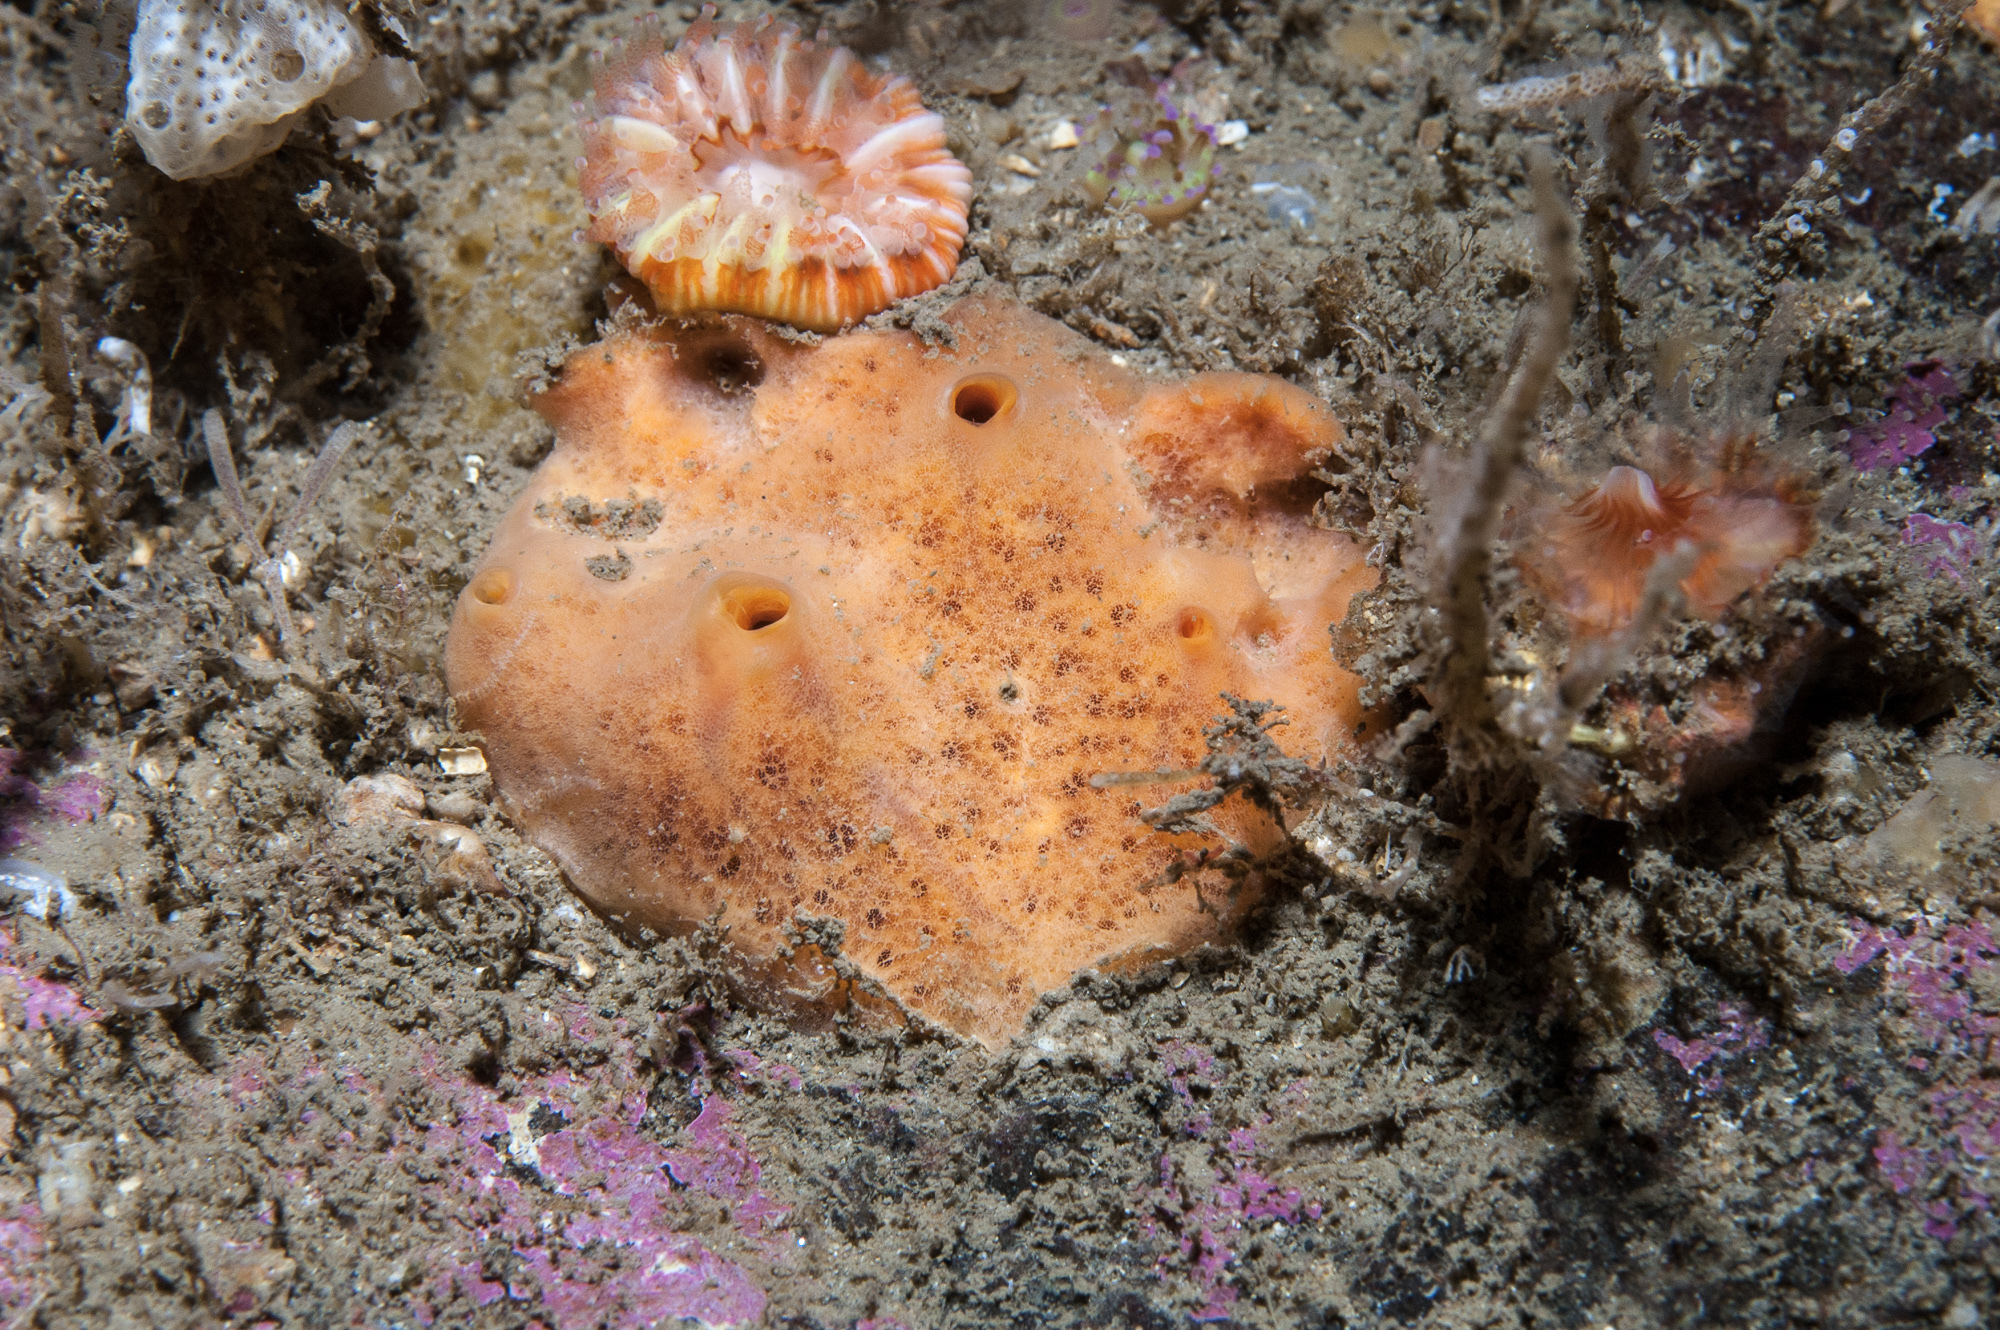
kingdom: Animalia
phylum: Porifera
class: Demospongiae
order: Poecilosclerida
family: Myxillidae
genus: Myxilla
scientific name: Myxilla fimbriata
